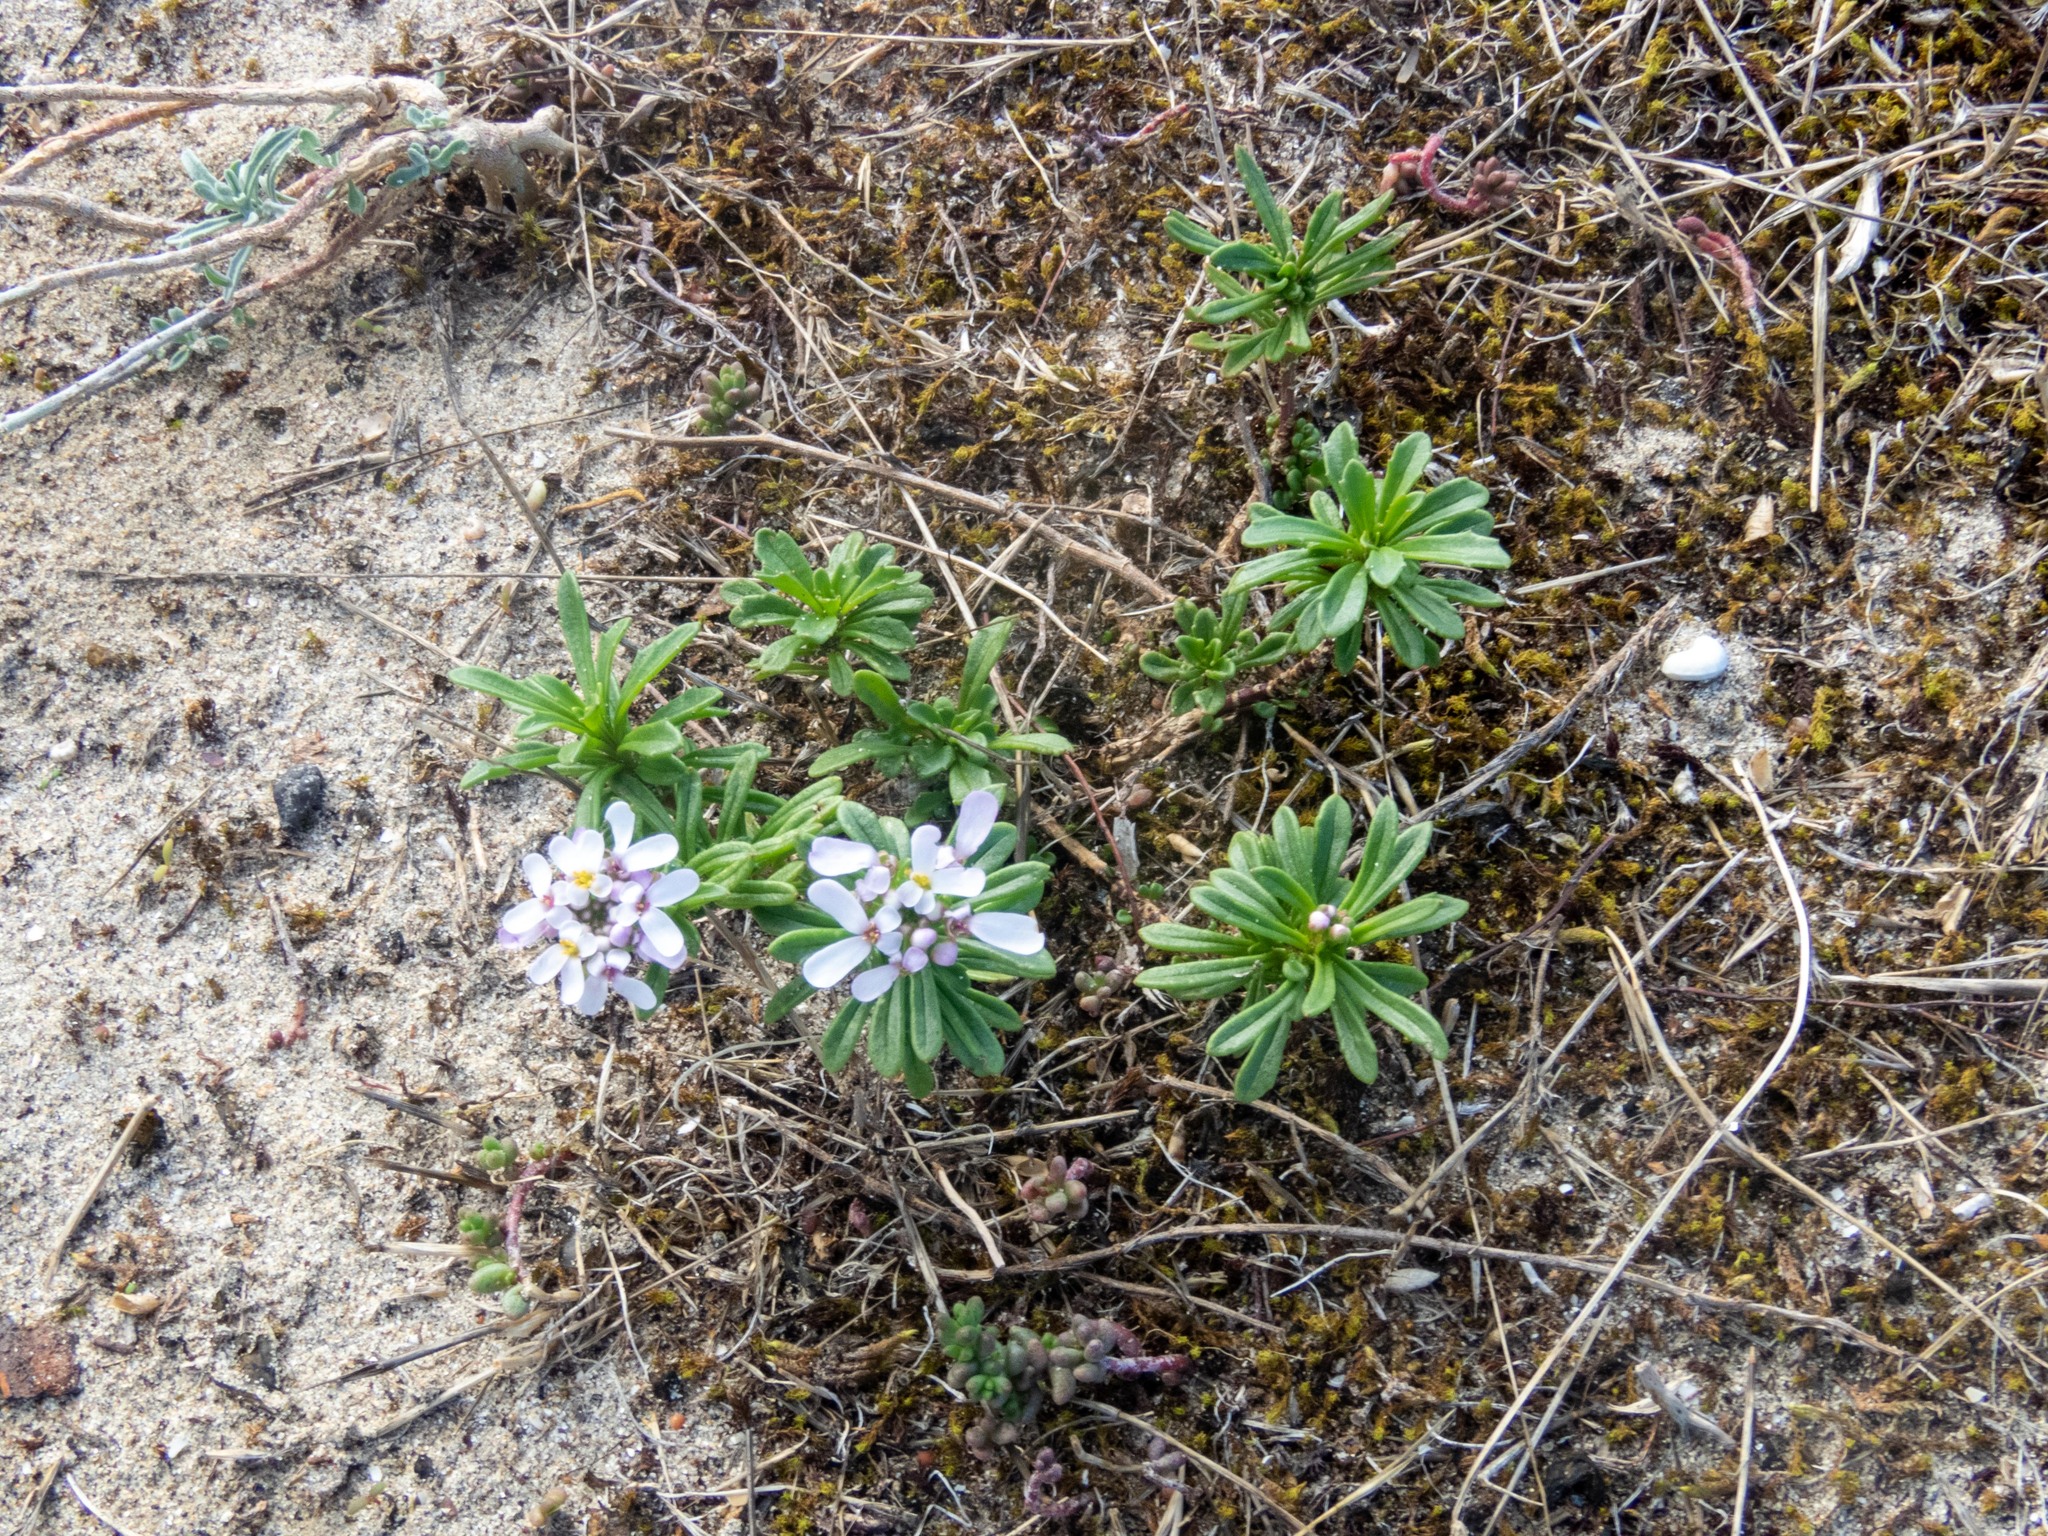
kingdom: Plantae
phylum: Tracheophyta
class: Magnoliopsida
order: Brassicales
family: Brassicaceae
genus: Iberis
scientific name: Iberis procumbens
